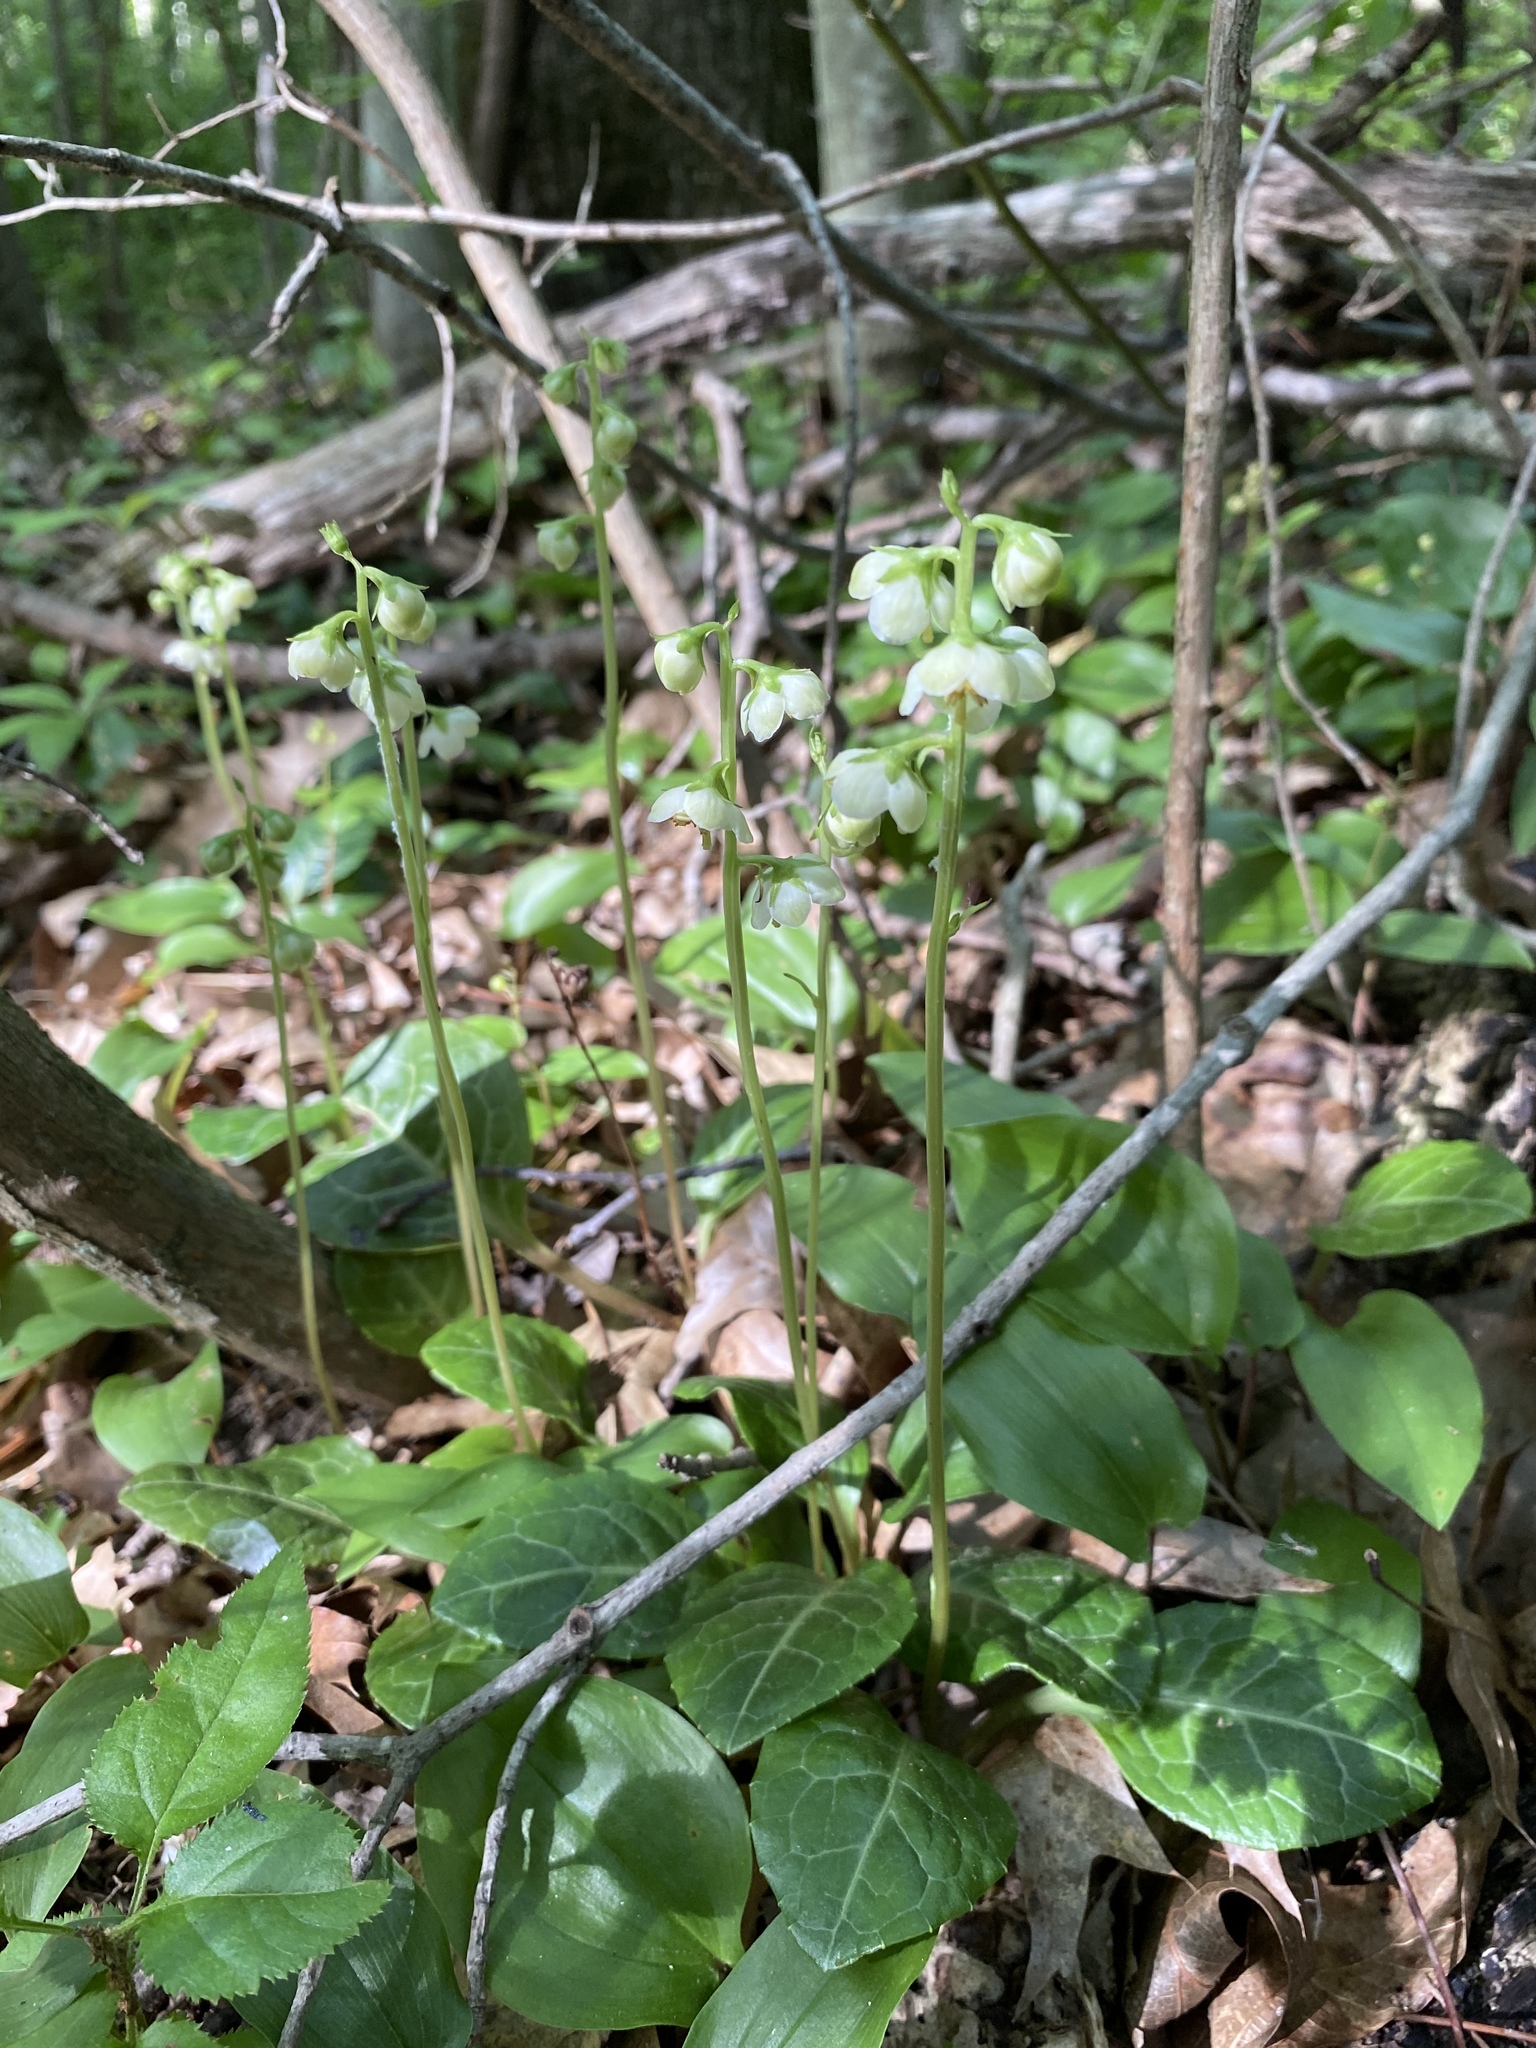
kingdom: Plantae
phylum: Tracheophyta
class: Magnoliopsida
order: Ericales
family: Ericaceae
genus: Pyrola
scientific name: Pyrola americana
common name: American wintergreen
